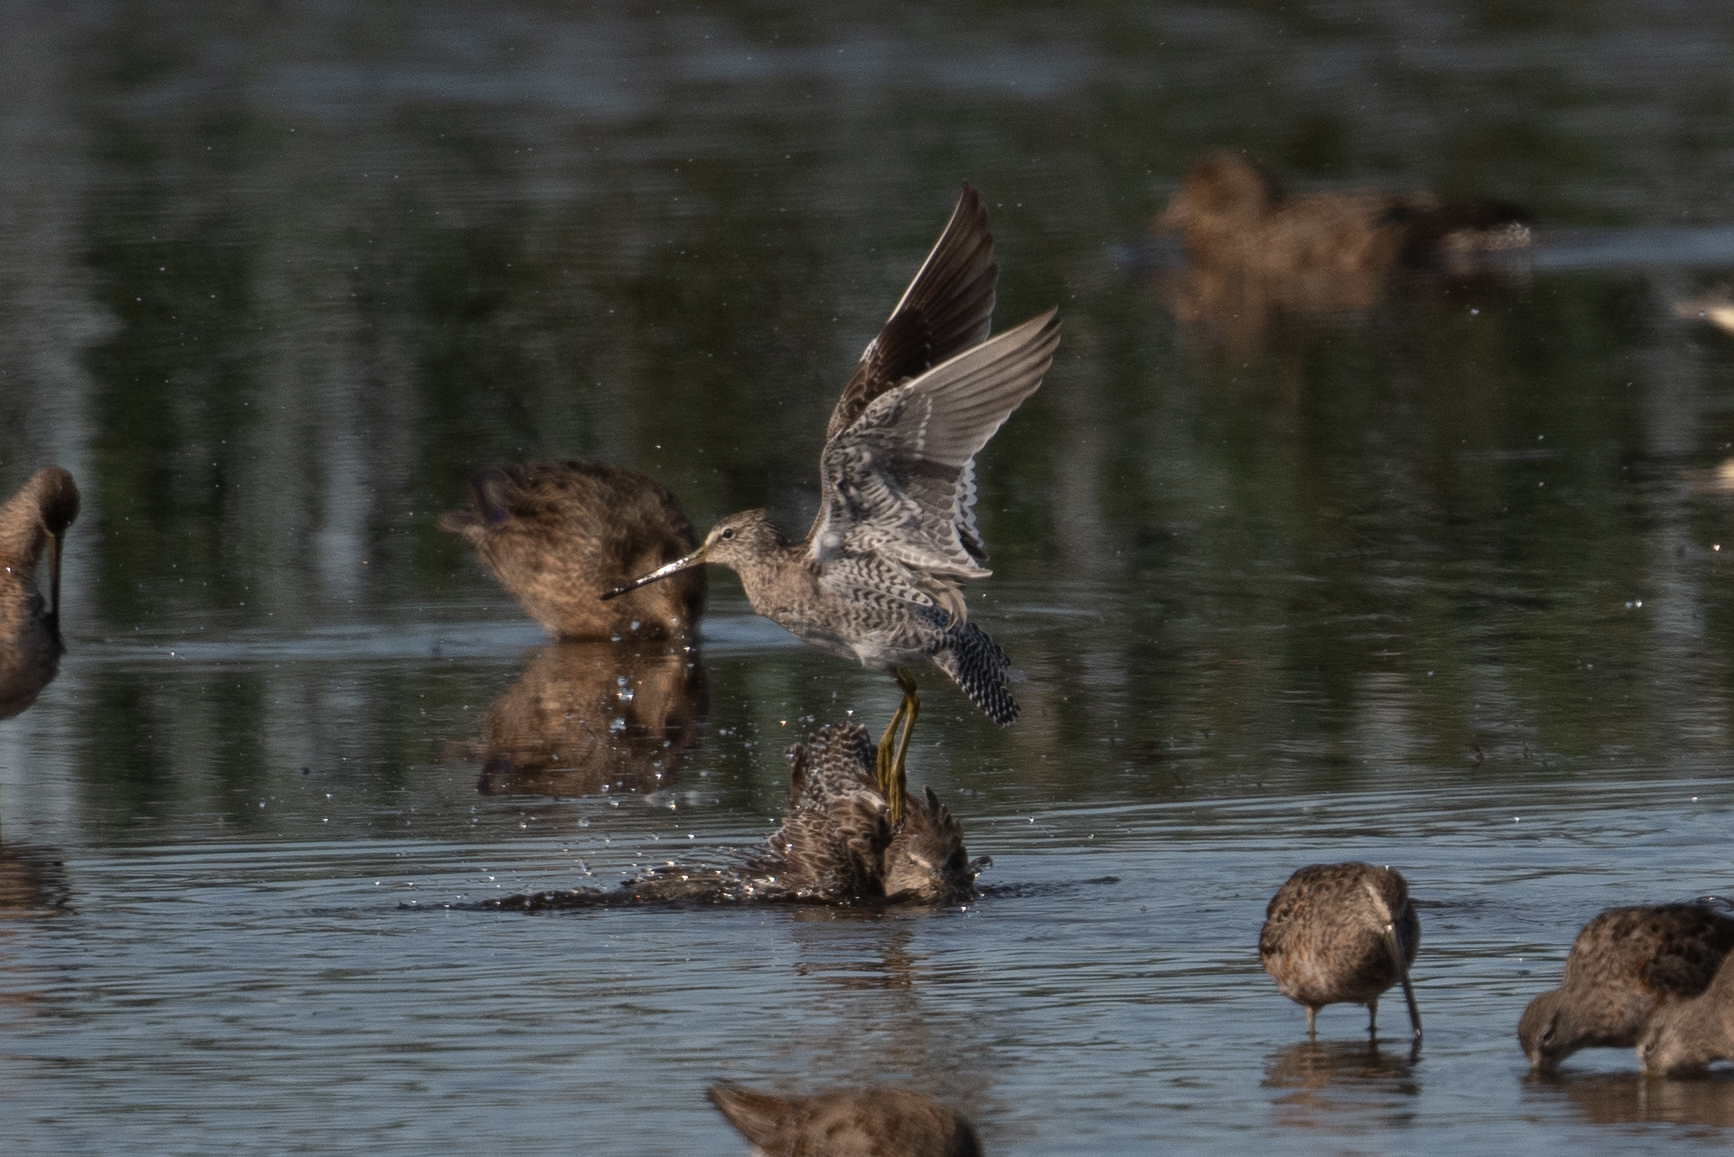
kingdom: Animalia
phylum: Chordata
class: Aves
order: Charadriiformes
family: Scolopacidae
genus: Limnodromus
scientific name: Limnodromus scolopaceus
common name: Long-billed dowitcher
